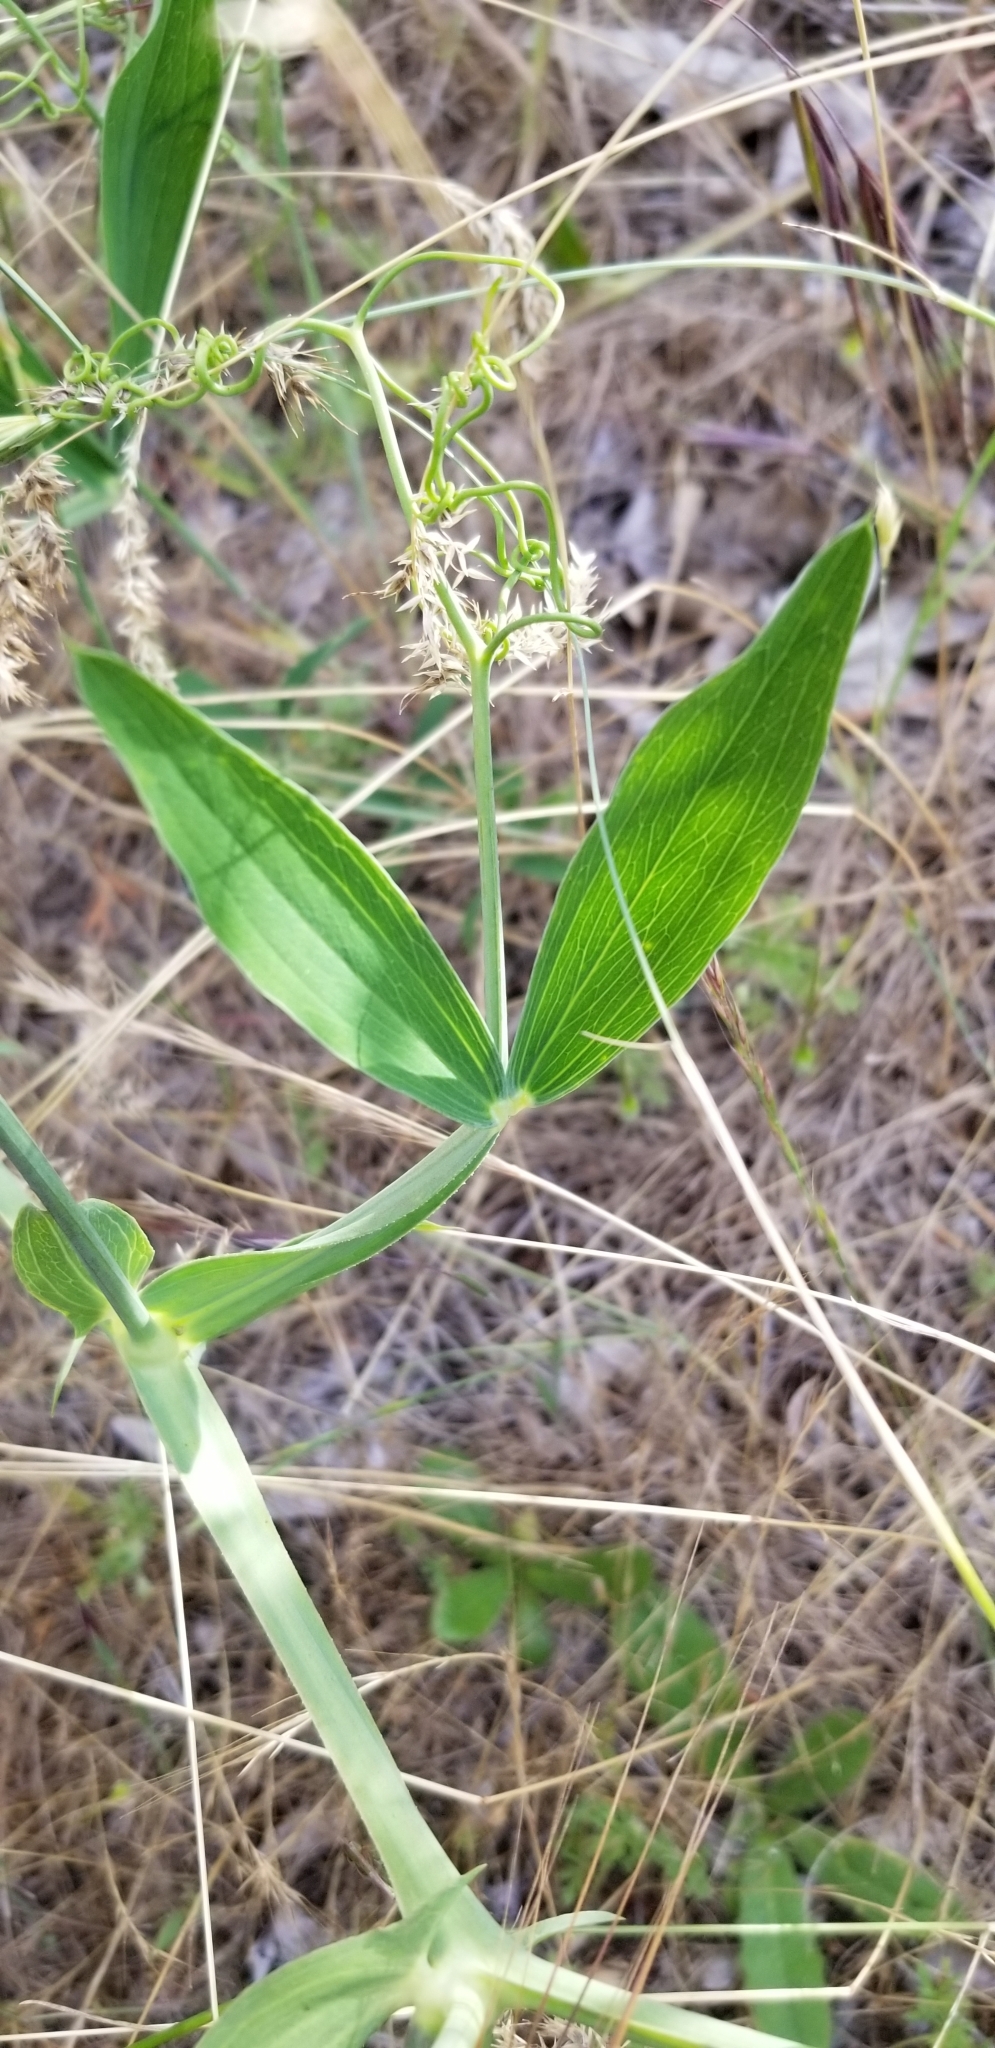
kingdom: Plantae
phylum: Tracheophyta
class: Magnoliopsida
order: Fabales
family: Fabaceae
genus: Lathyrus
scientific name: Lathyrus latifolius
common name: Perennial pea
